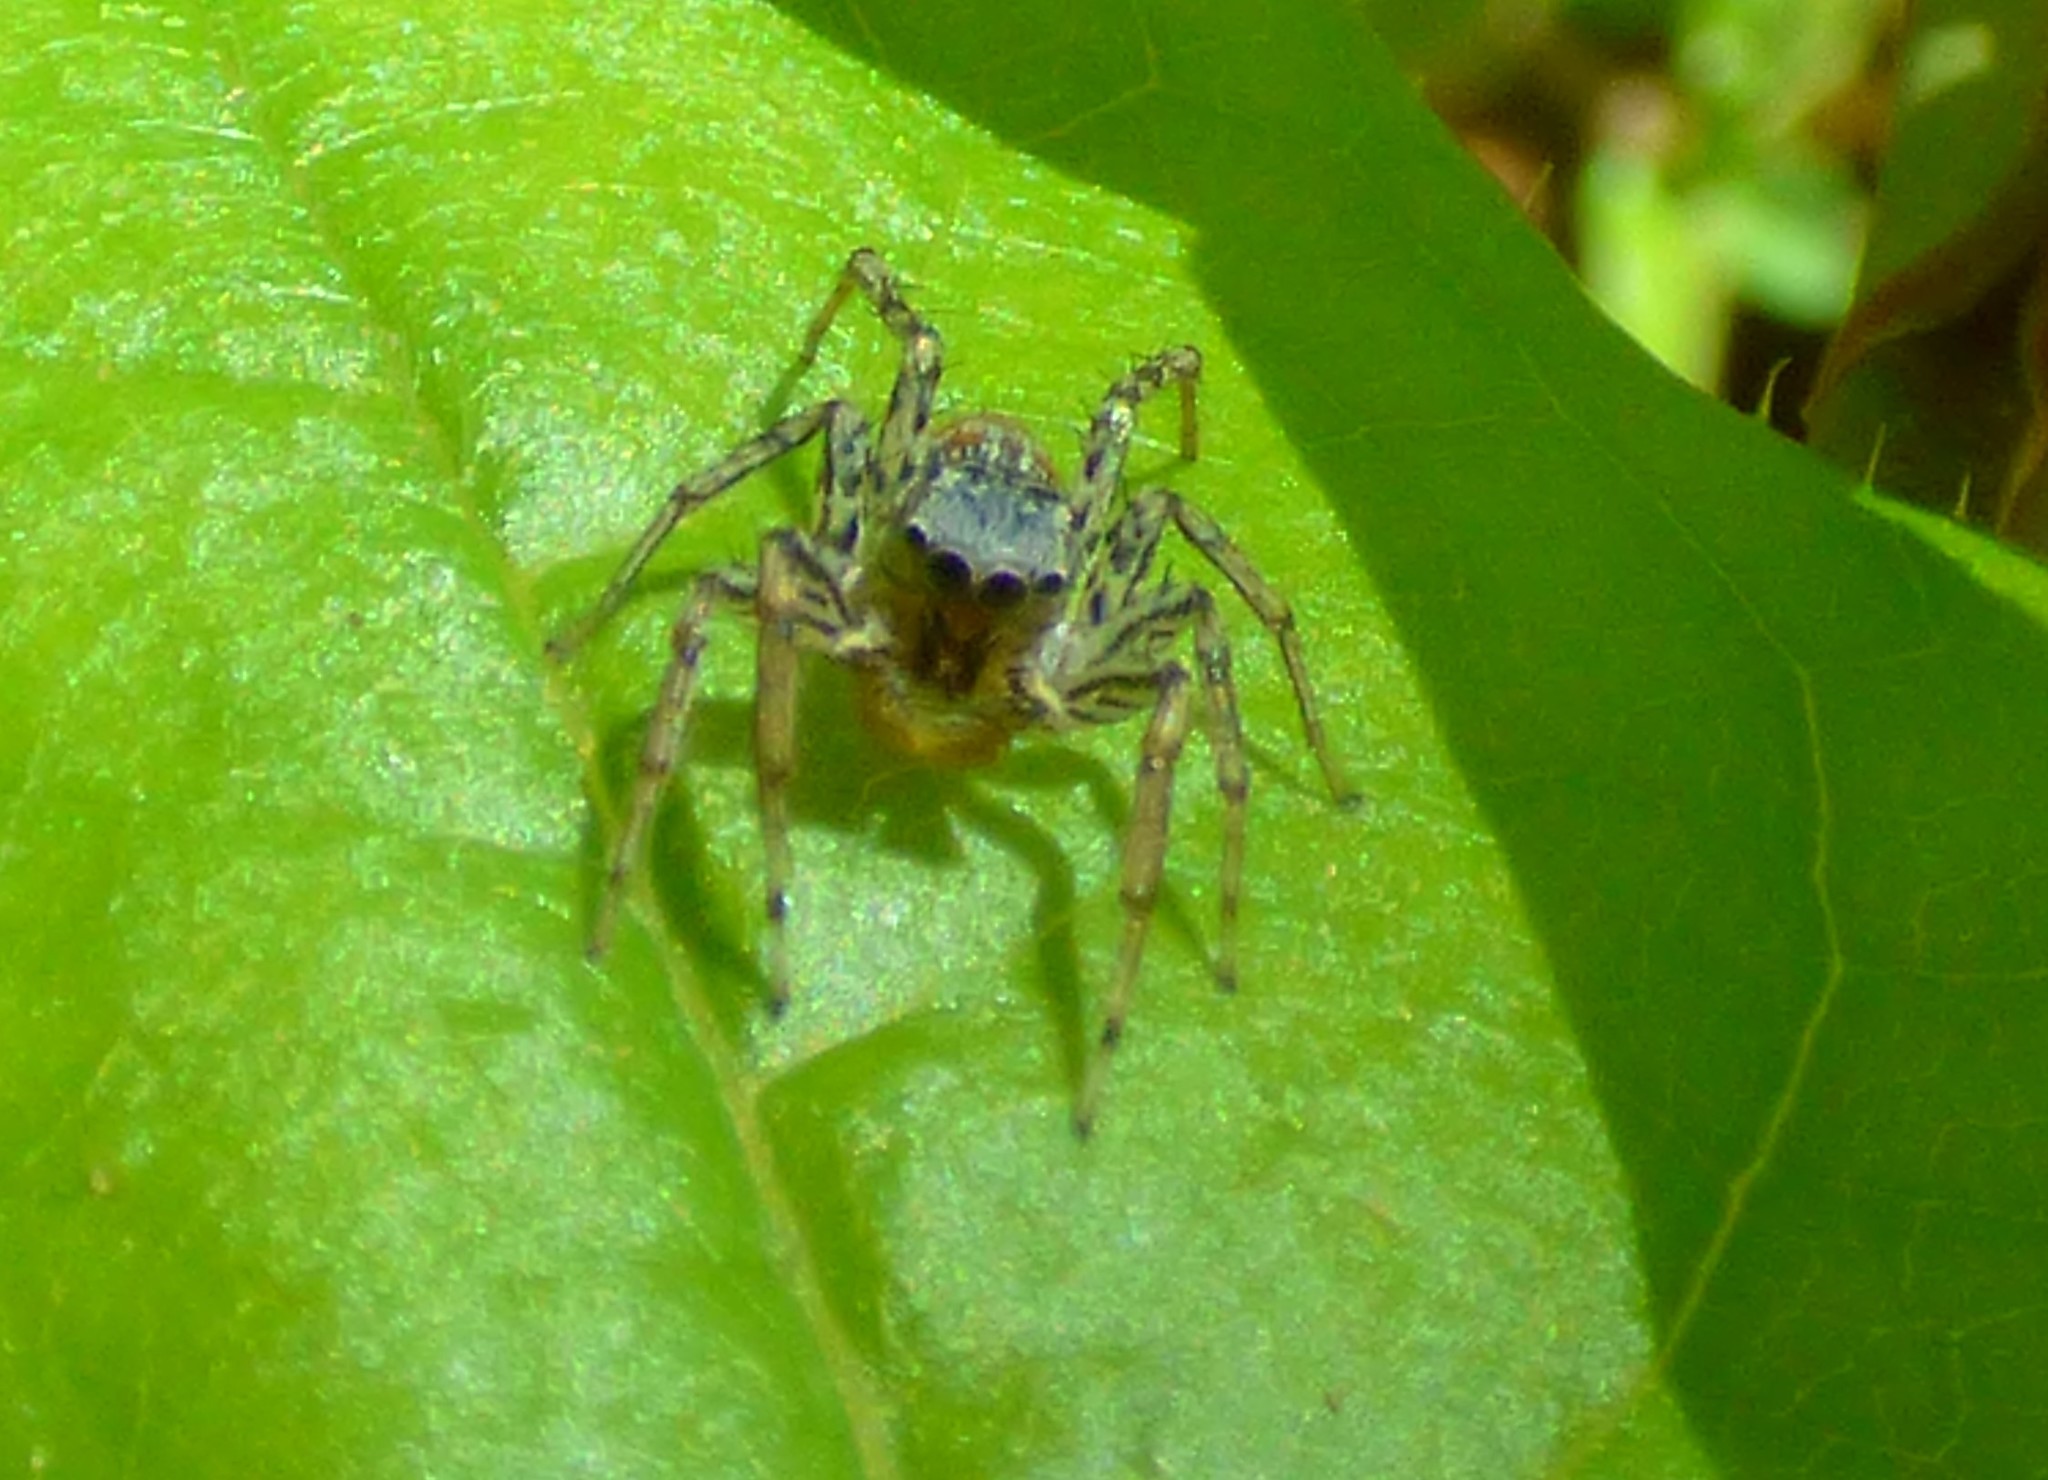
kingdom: Animalia
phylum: Arthropoda
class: Arachnida
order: Araneae
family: Salticidae
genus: Maevia
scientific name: Maevia inclemens
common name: Dimorphic jumper
